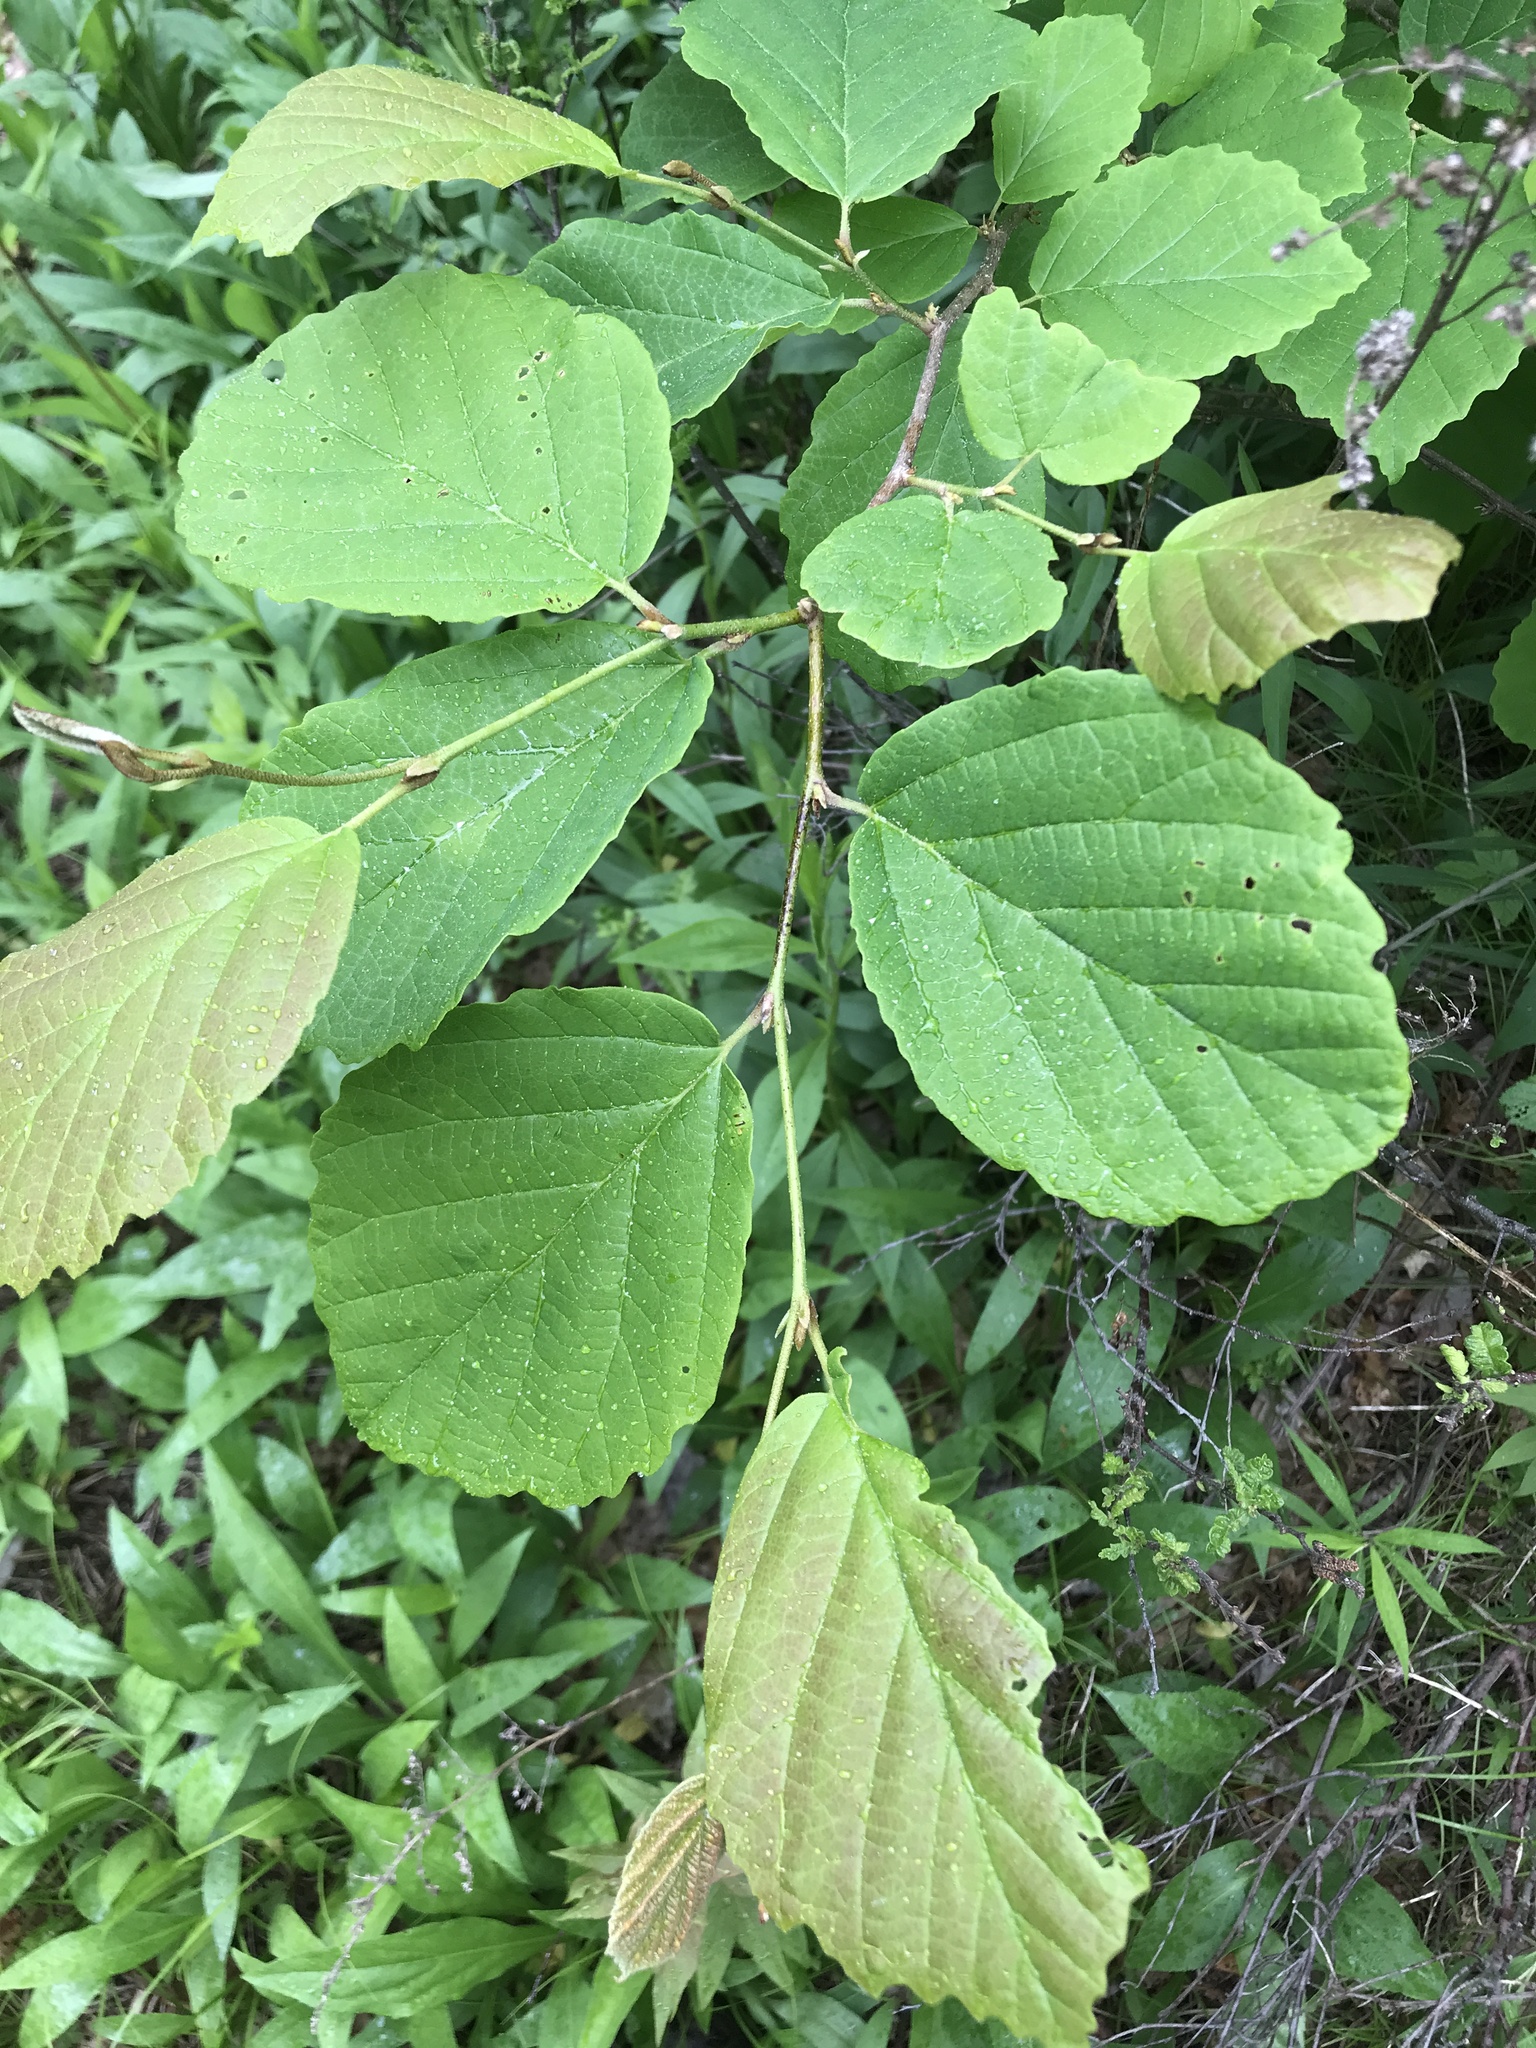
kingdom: Plantae
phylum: Tracheophyta
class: Magnoliopsida
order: Saxifragales
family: Hamamelidaceae
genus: Hamamelis
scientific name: Hamamelis virginiana
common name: Witch-hazel
